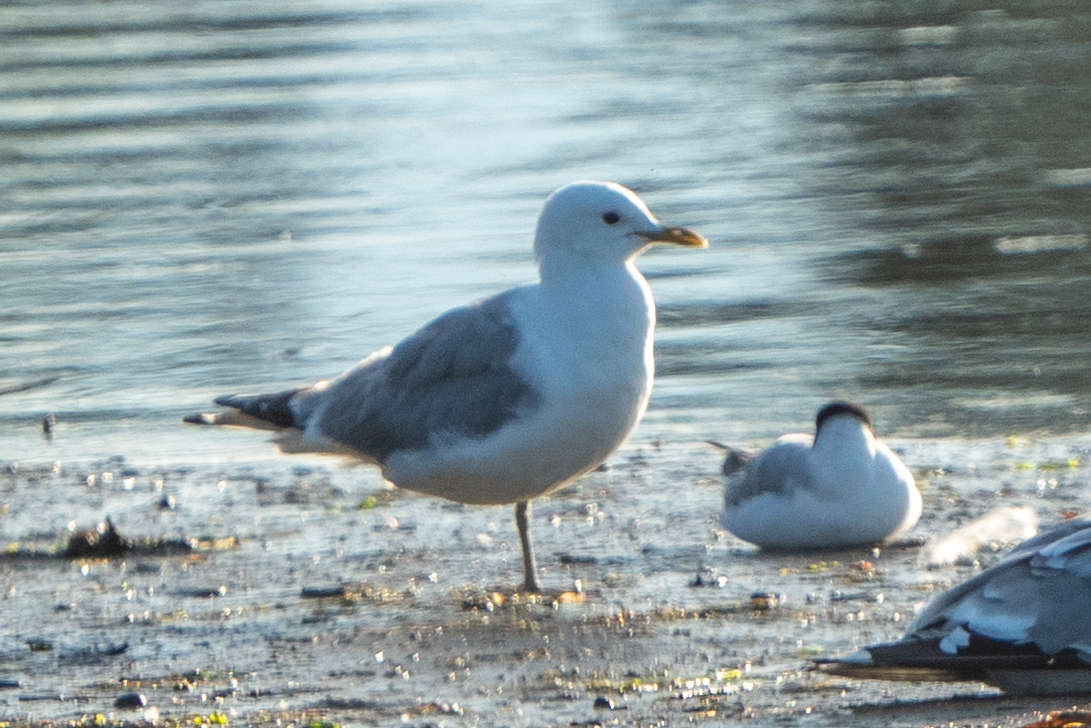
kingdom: Animalia
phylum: Chordata
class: Aves
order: Charadriiformes
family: Laridae
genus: Larus
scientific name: Larus brachyrhynchus
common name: Short-billed gull
